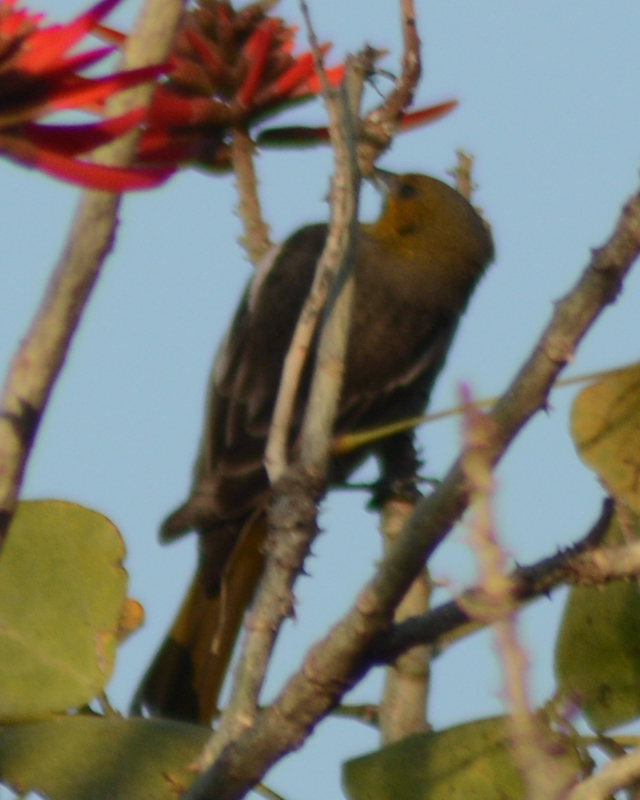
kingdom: Animalia
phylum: Chordata
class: Aves
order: Passeriformes
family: Icteridae
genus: Icterus
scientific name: Icterus abeillei
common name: Black-backed oriole
